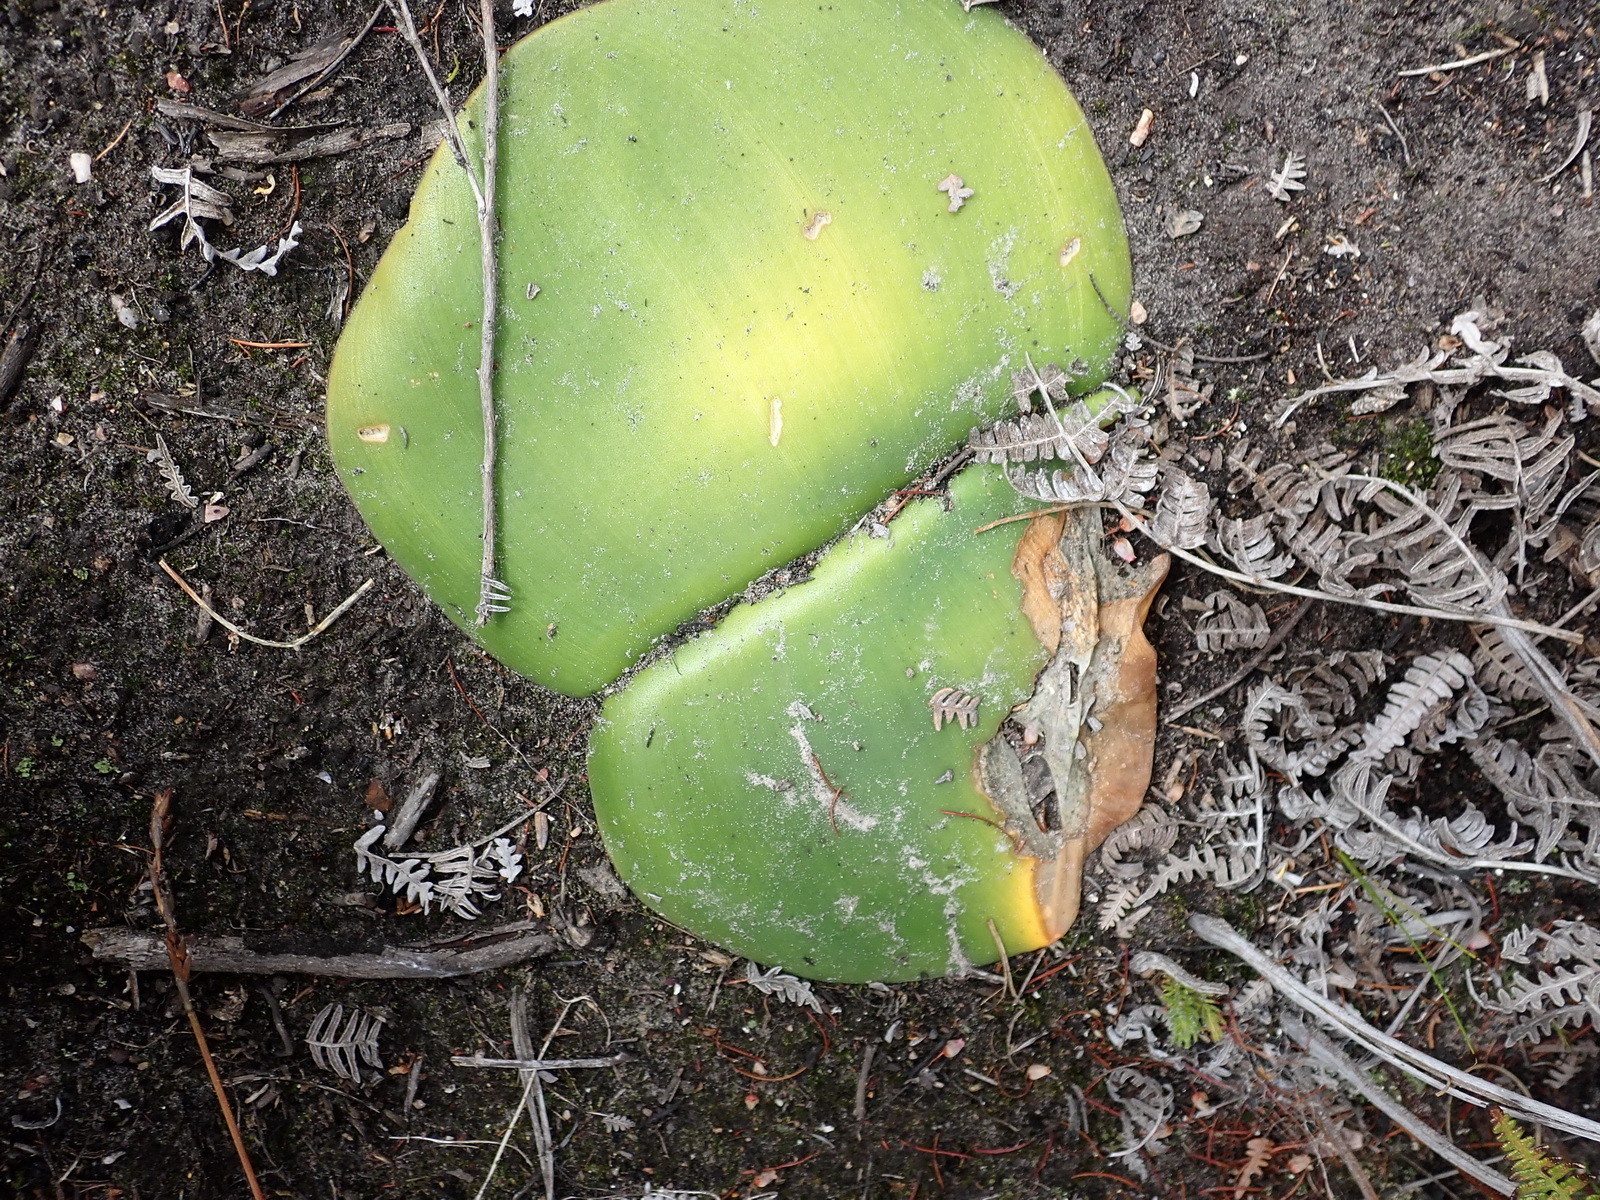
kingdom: Plantae
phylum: Tracheophyta
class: Liliopsida
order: Asparagales
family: Amaryllidaceae
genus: Haemanthus
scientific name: Haemanthus sanguineus
